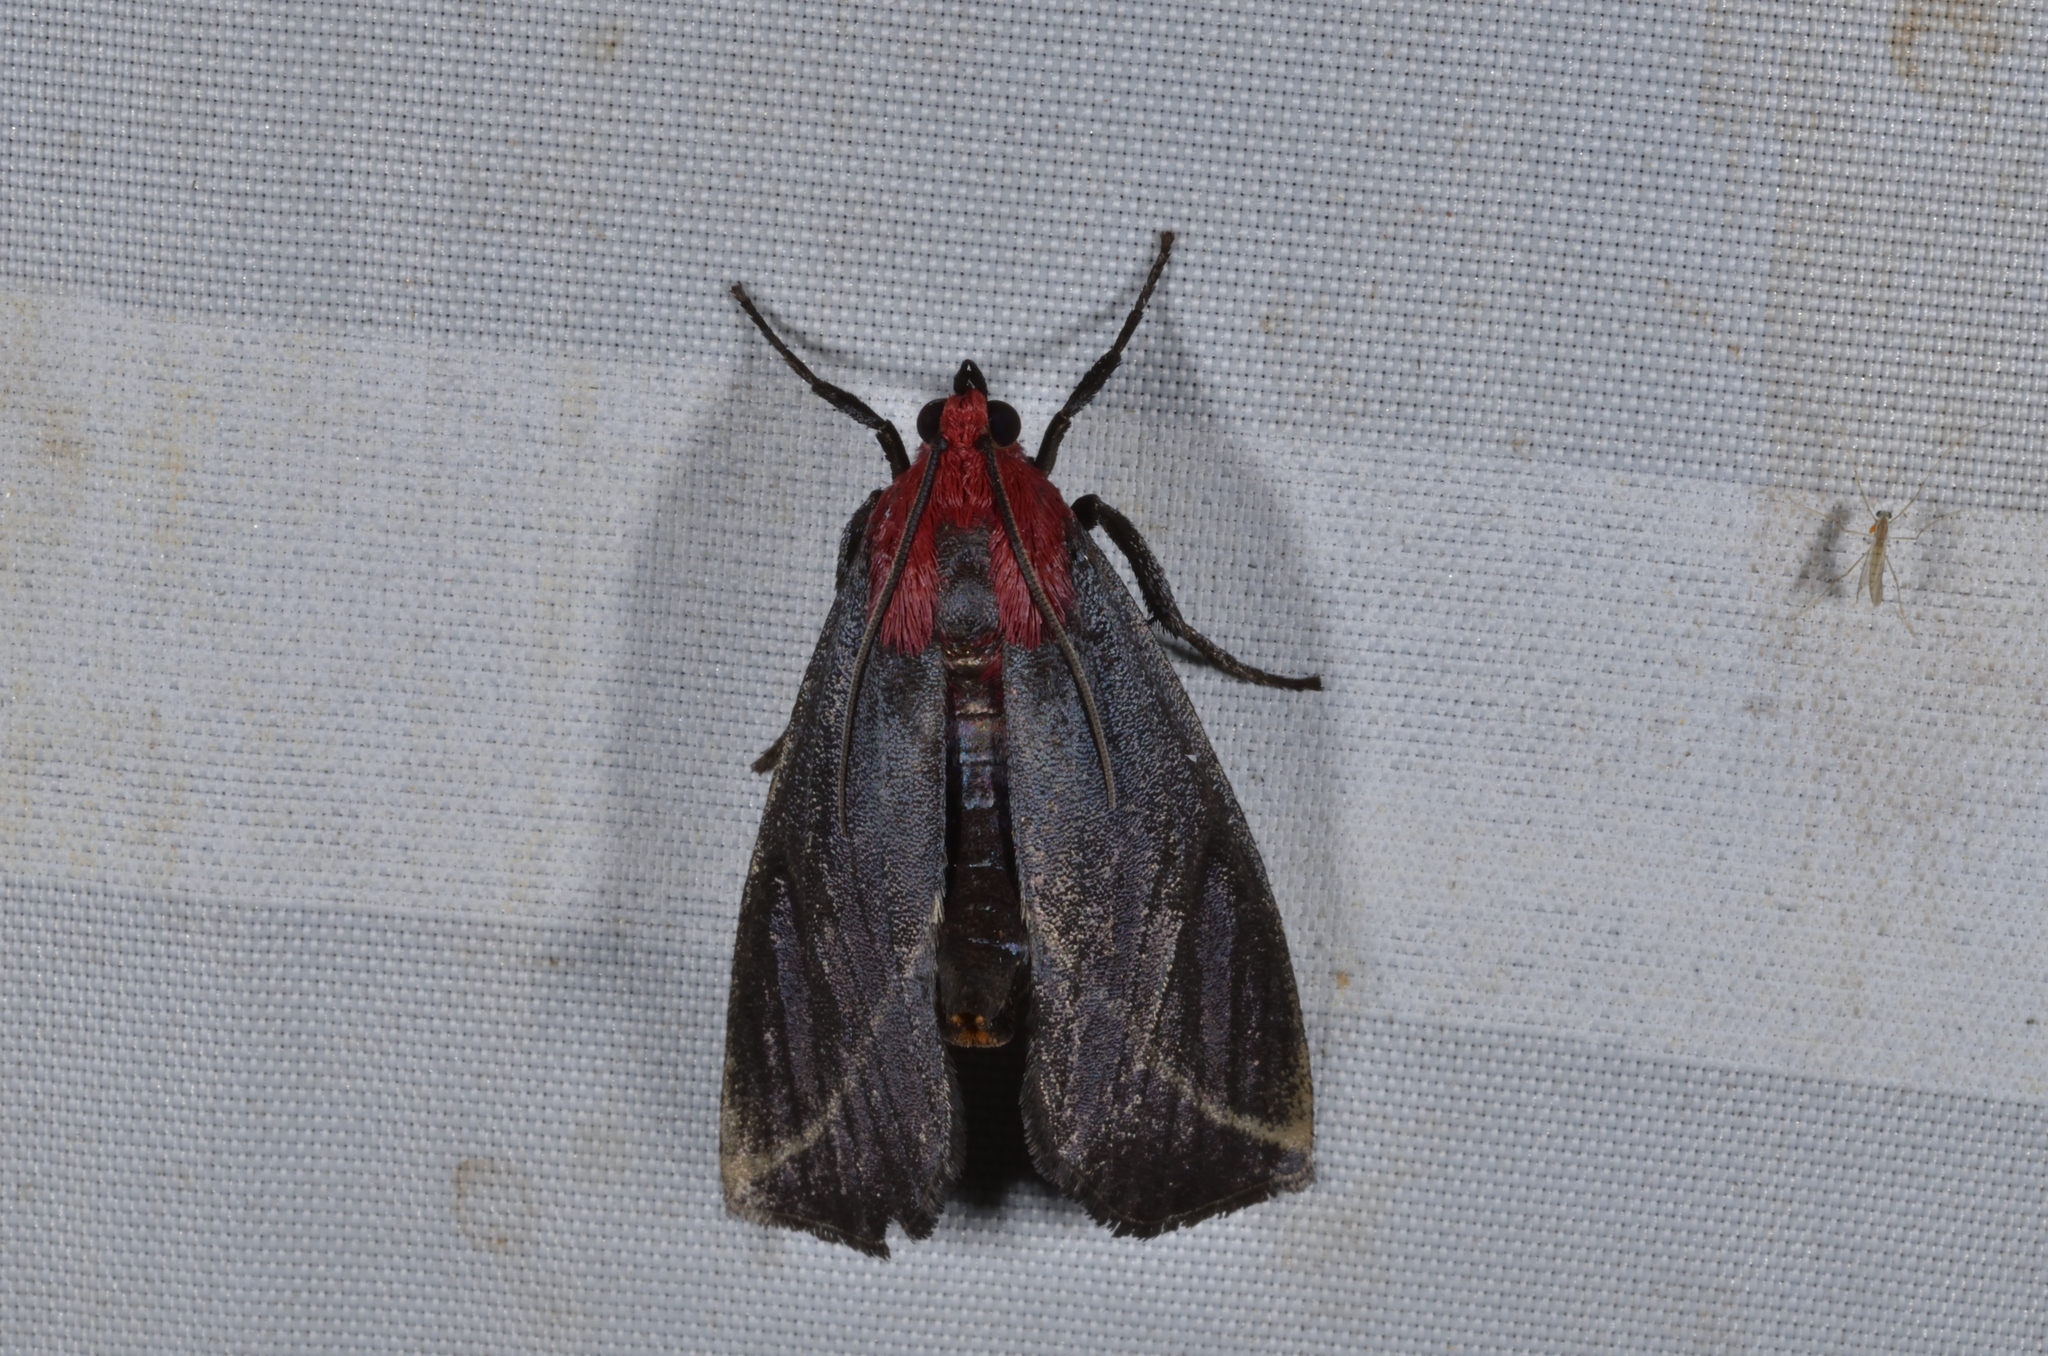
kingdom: Animalia
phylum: Arthropoda
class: Insecta
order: Lepidoptera
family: Pyralidae
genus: Toccolosida
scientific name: Toccolosida rubriceps
